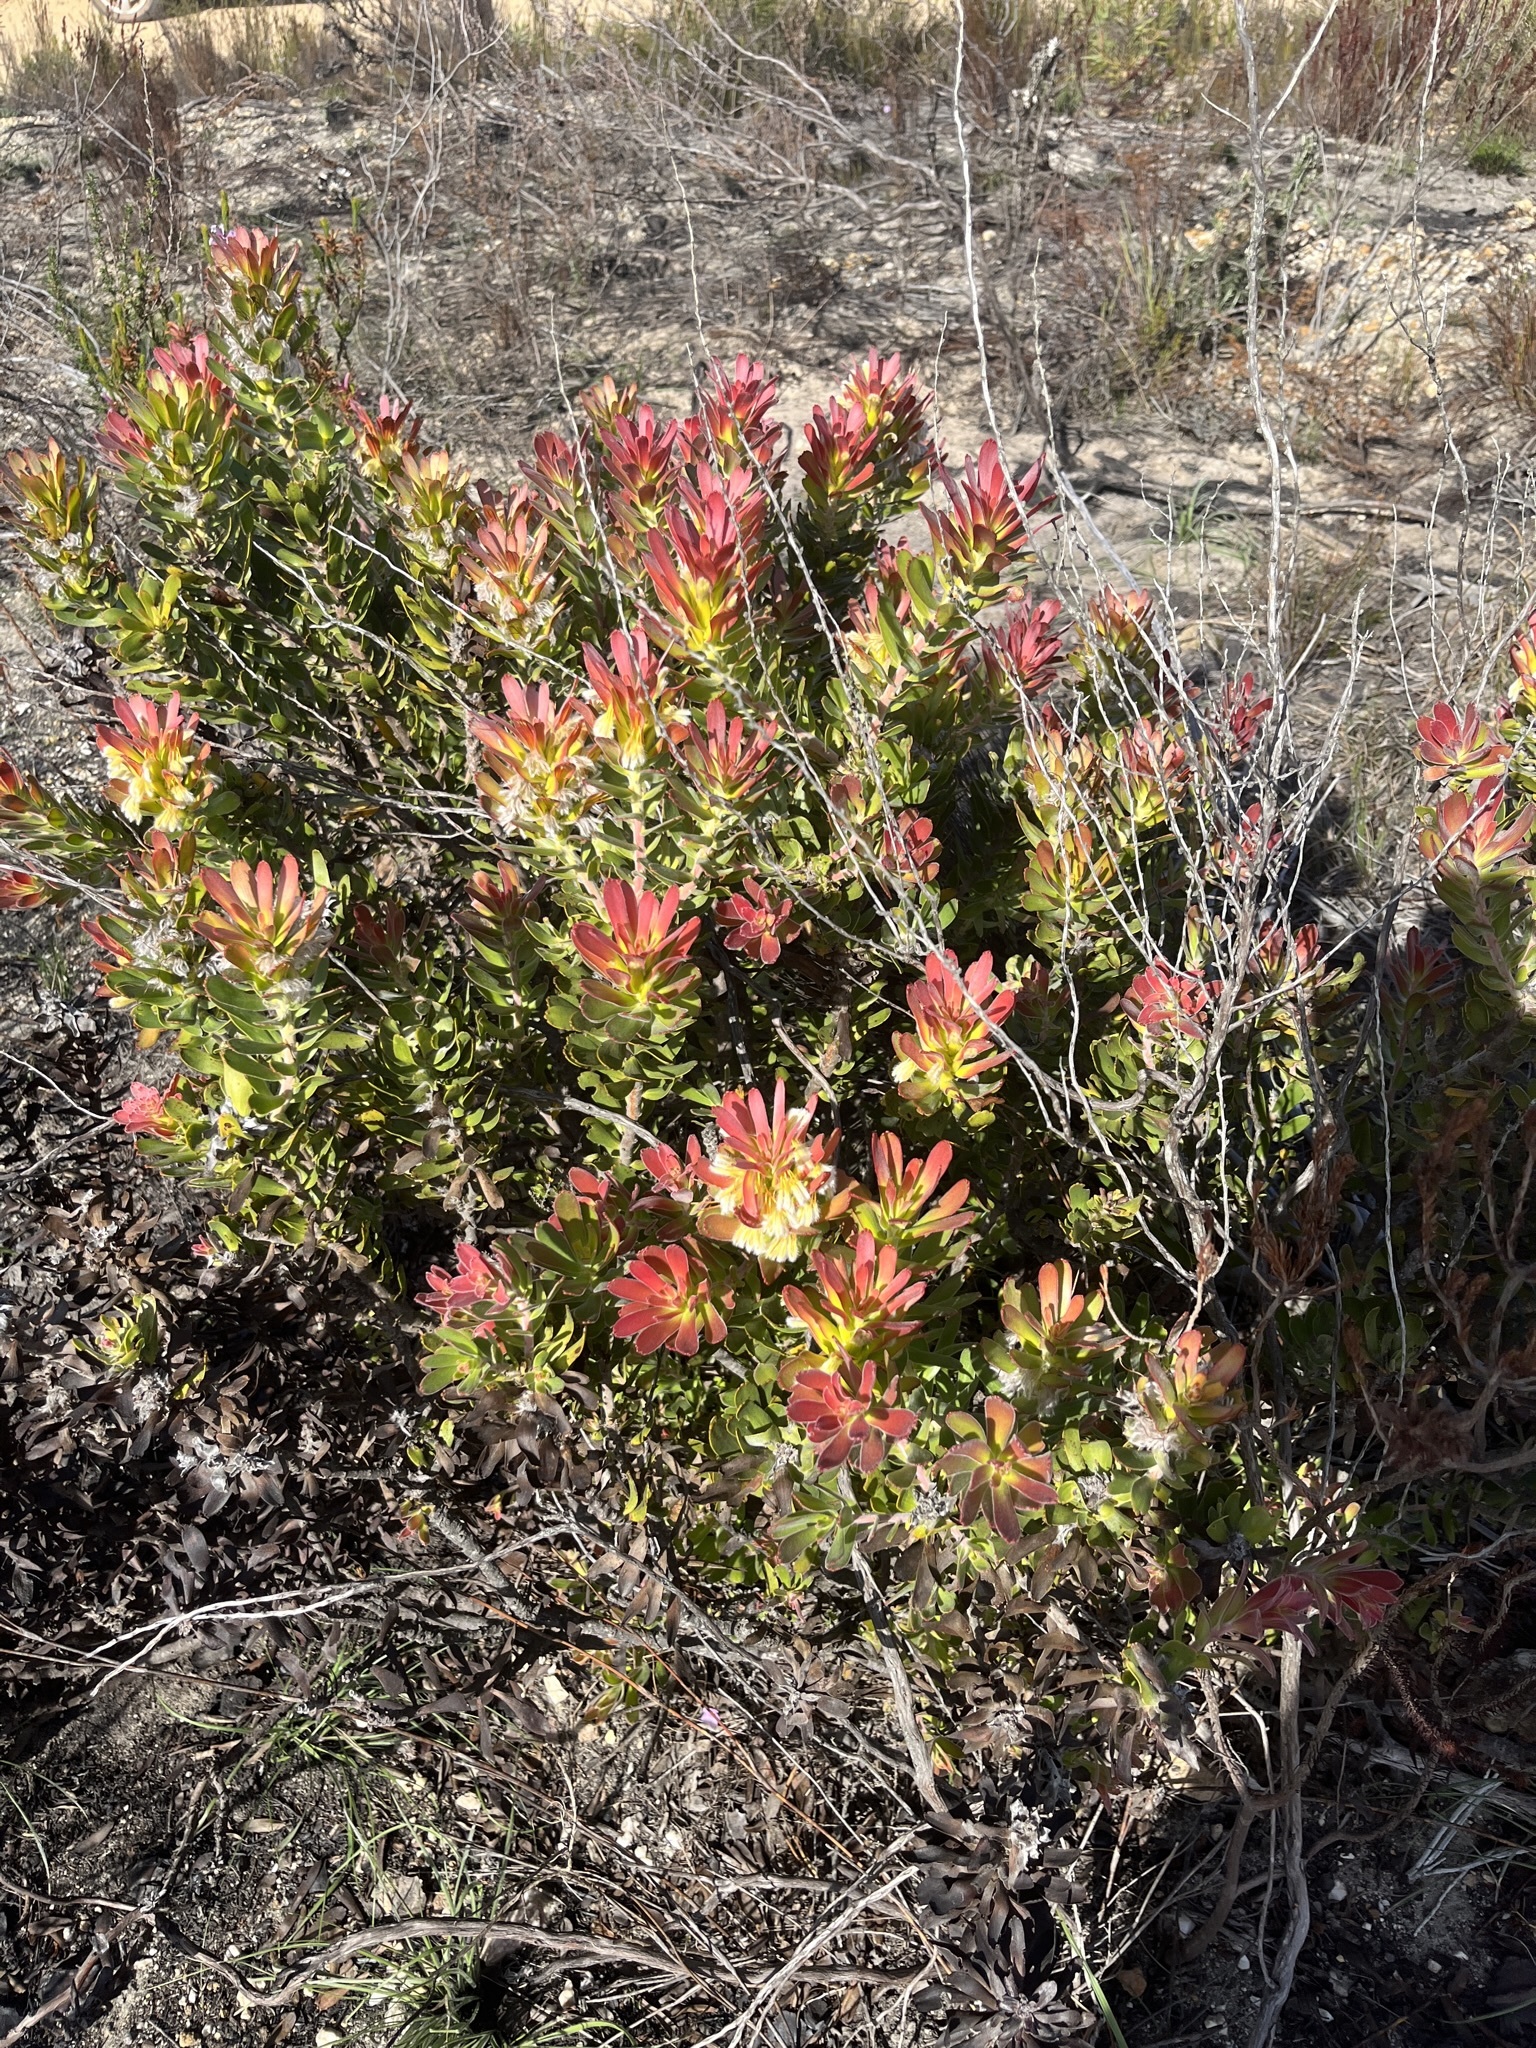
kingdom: Plantae
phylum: Tracheophyta
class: Magnoliopsida
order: Proteales
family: Proteaceae
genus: Mimetes
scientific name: Mimetes cucullatus
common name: Common pagoda
